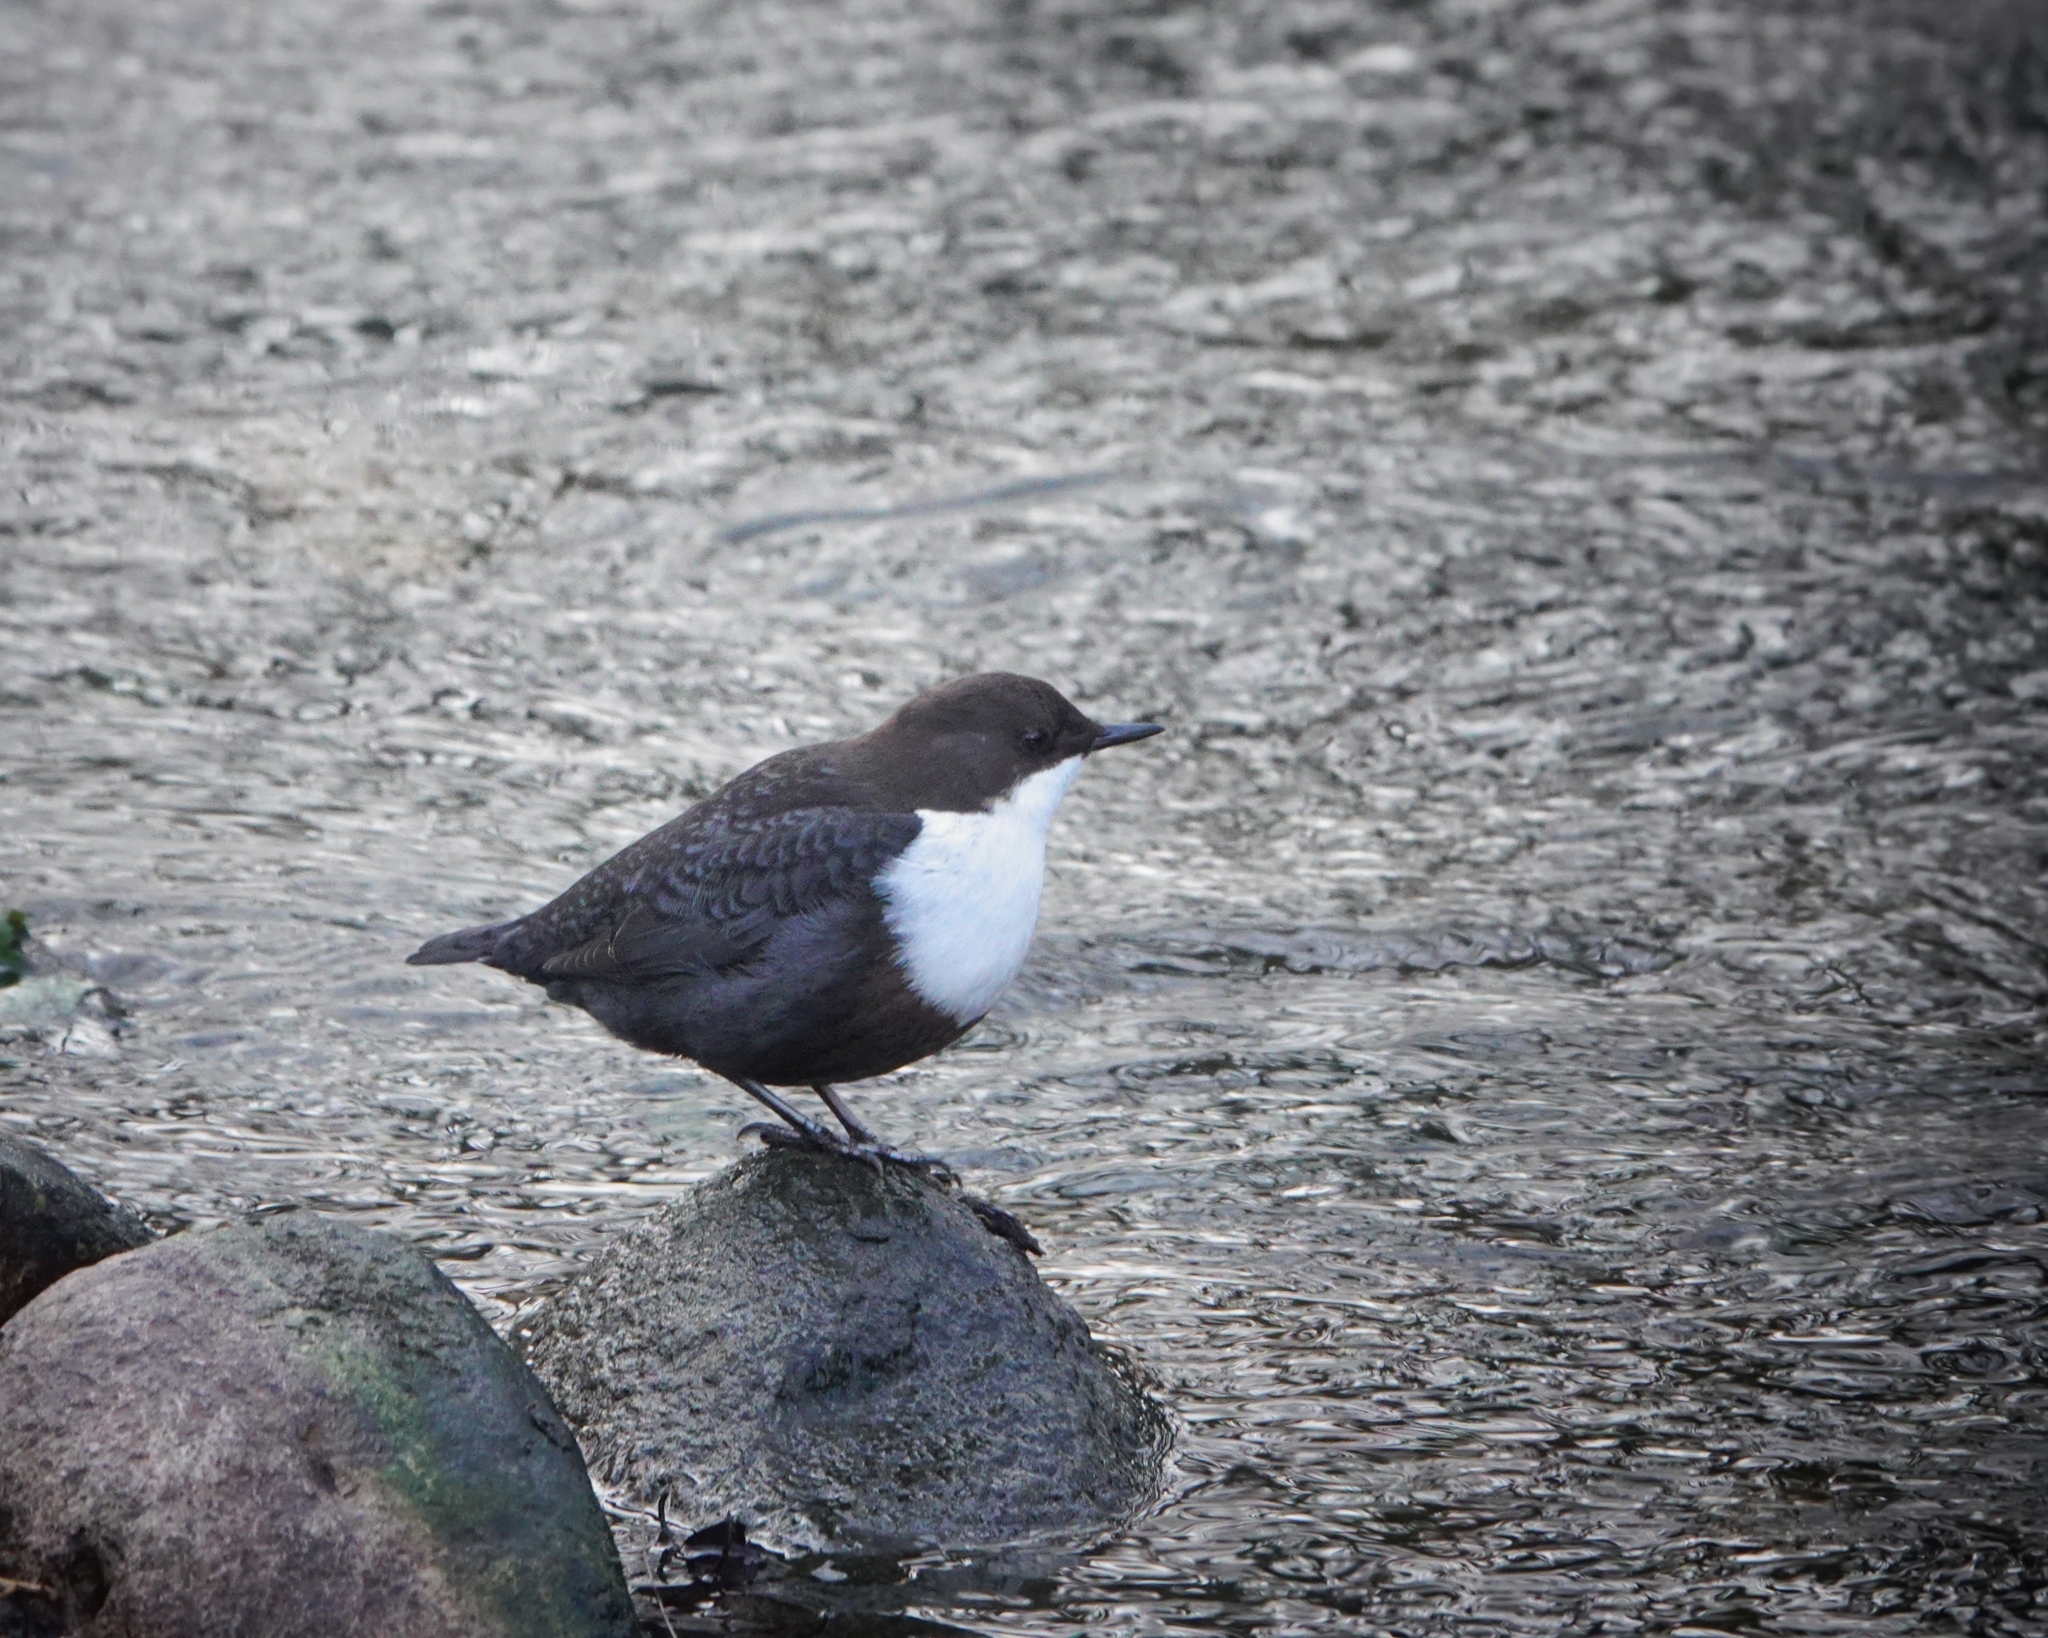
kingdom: Animalia
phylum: Chordata
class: Aves
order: Passeriformes
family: Cinclidae
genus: Cinclus
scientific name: Cinclus cinclus
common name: White-throated dipper
